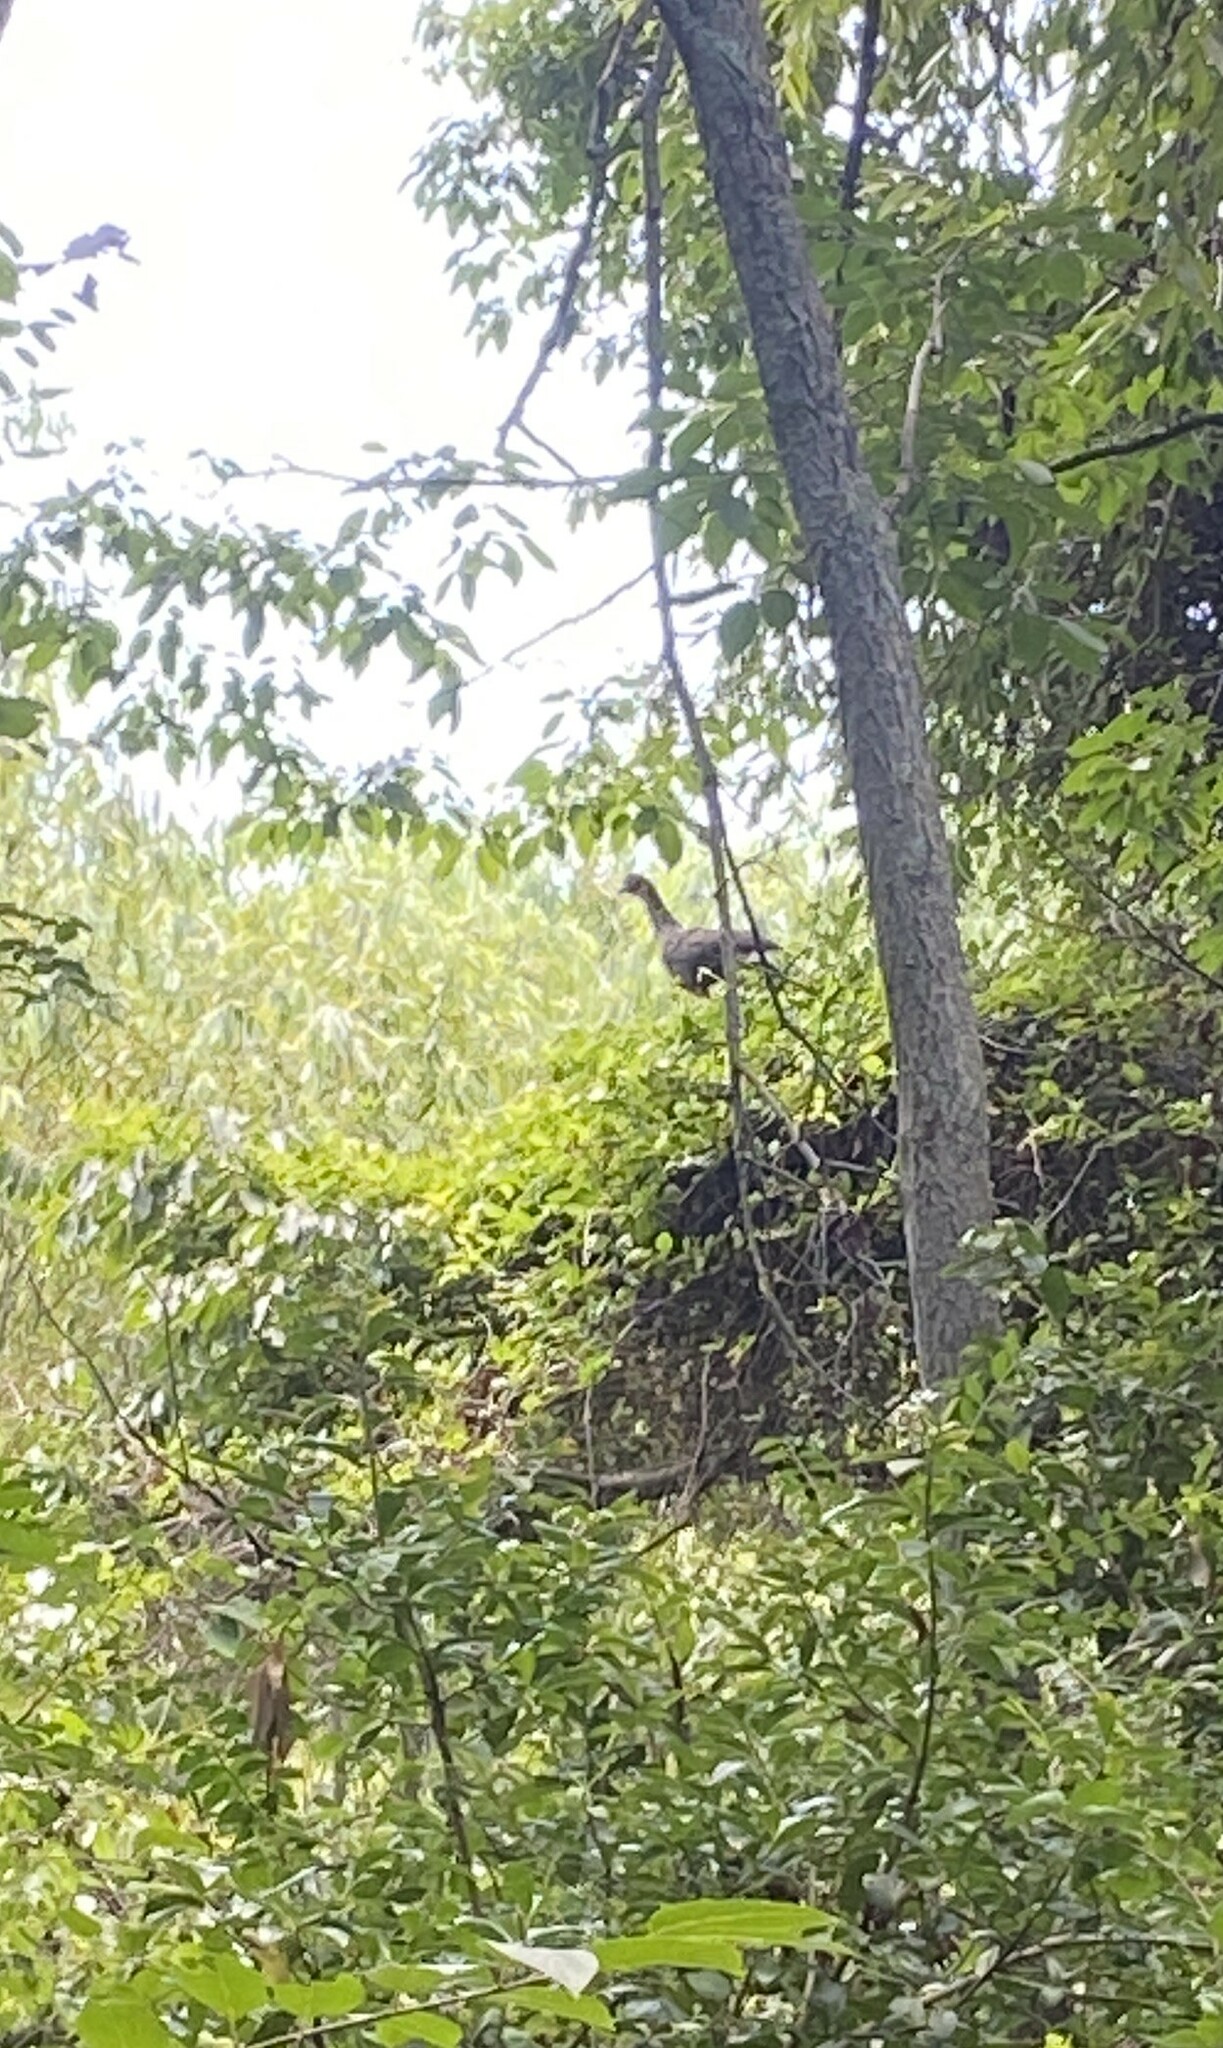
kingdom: Animalia
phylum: Chordata
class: Aves
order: Galliformes
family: Cracidae
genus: Penelope
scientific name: Penelope obscura
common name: Dusky-legged guan
